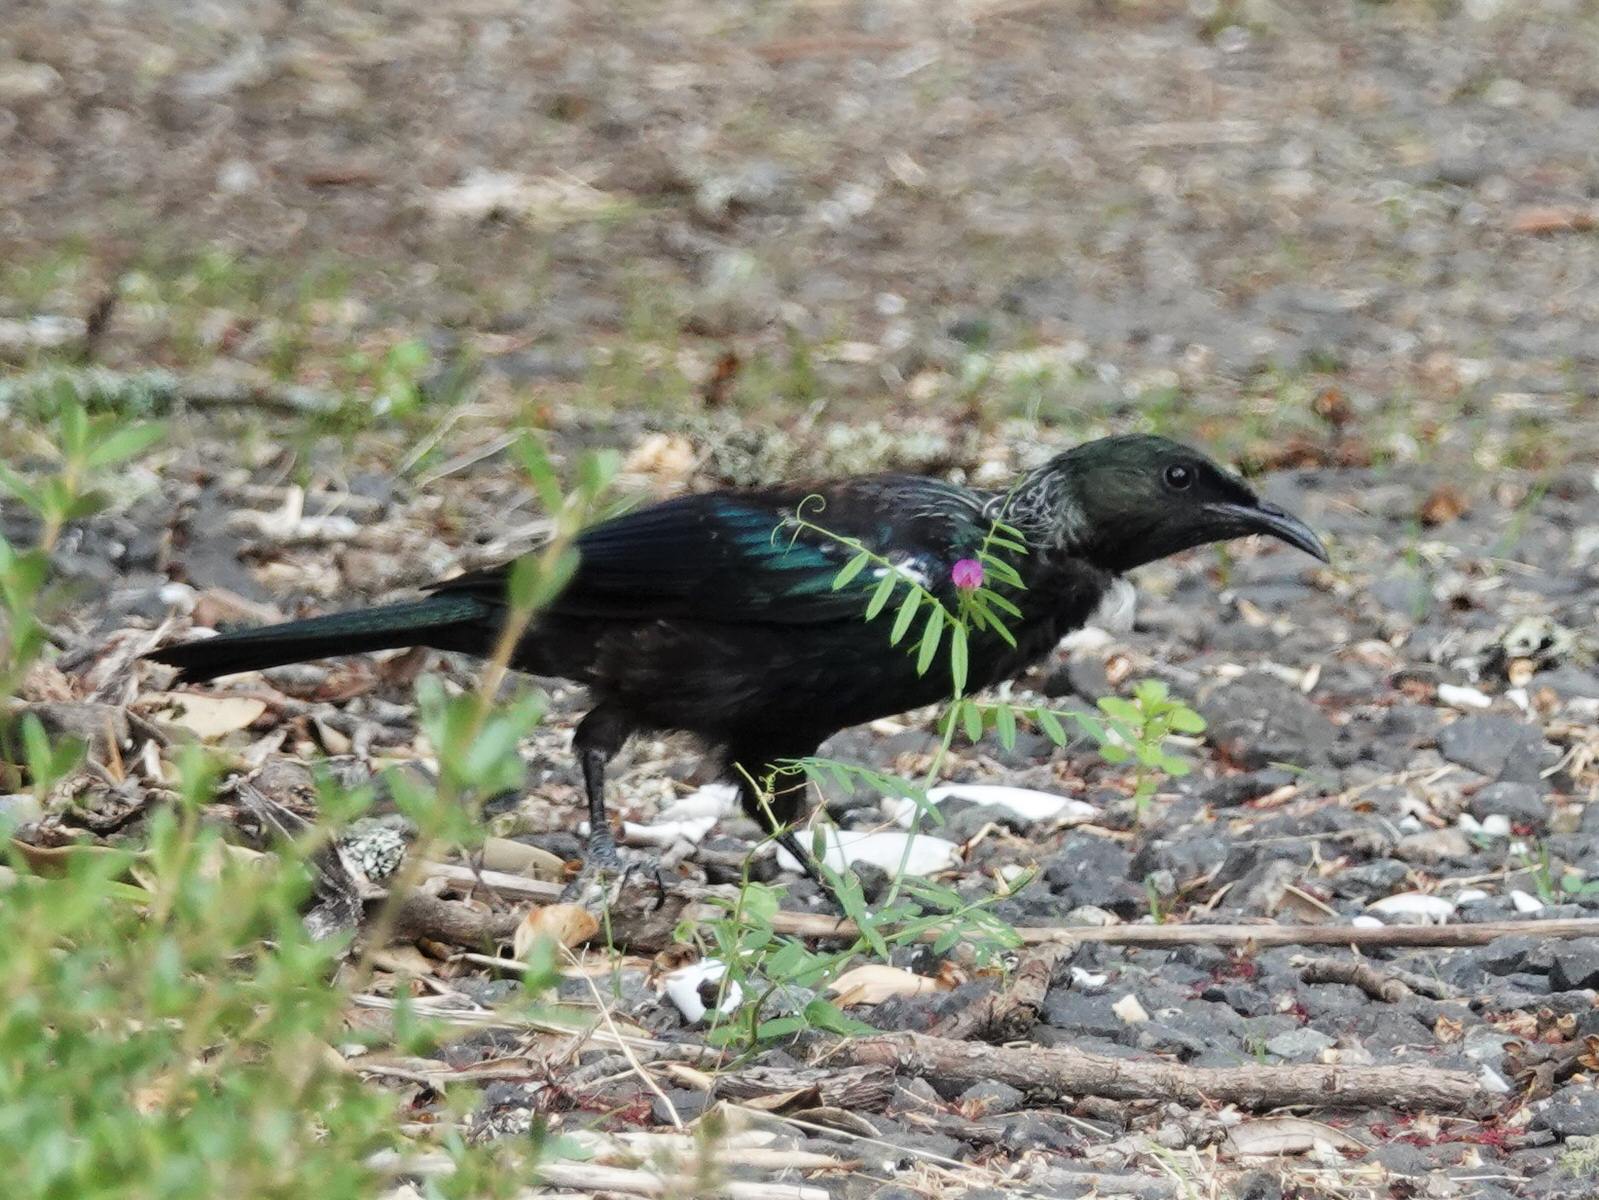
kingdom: Animalia
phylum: Chordata
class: Aves
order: Passeriformes
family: Meliphagidae
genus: Prosthemadera
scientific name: Prosthemadera novaeseelandiae
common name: Tui
